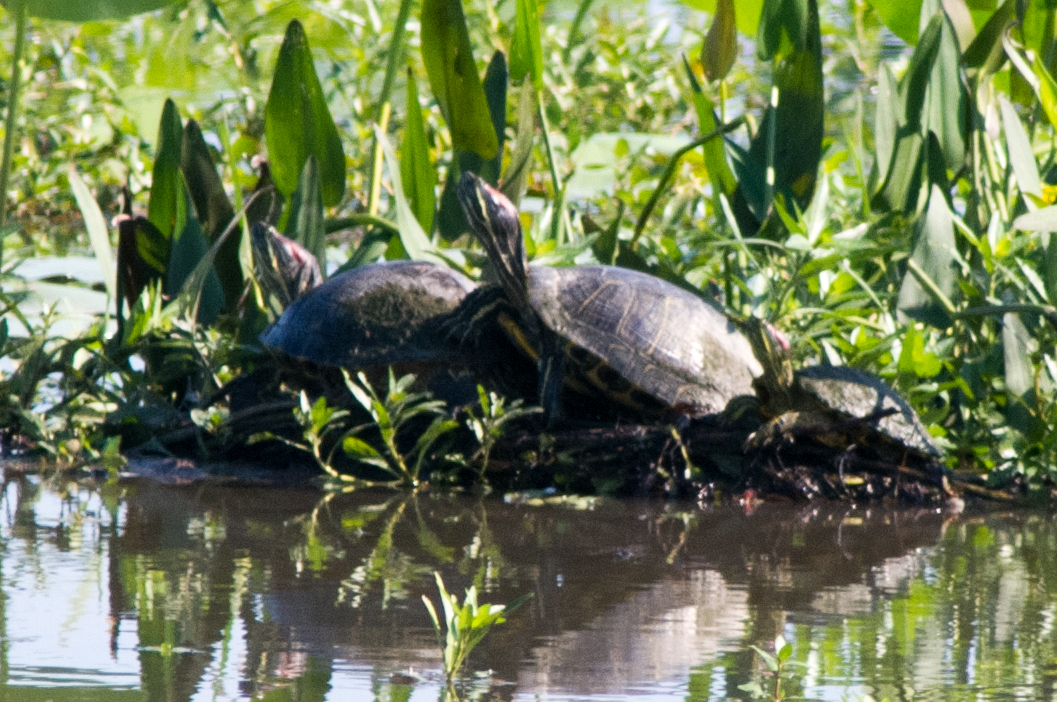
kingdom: Animalia
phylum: Chordata
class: Testudines
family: Emydidae
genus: Trachemys
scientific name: Trachemys scripta
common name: Slider
